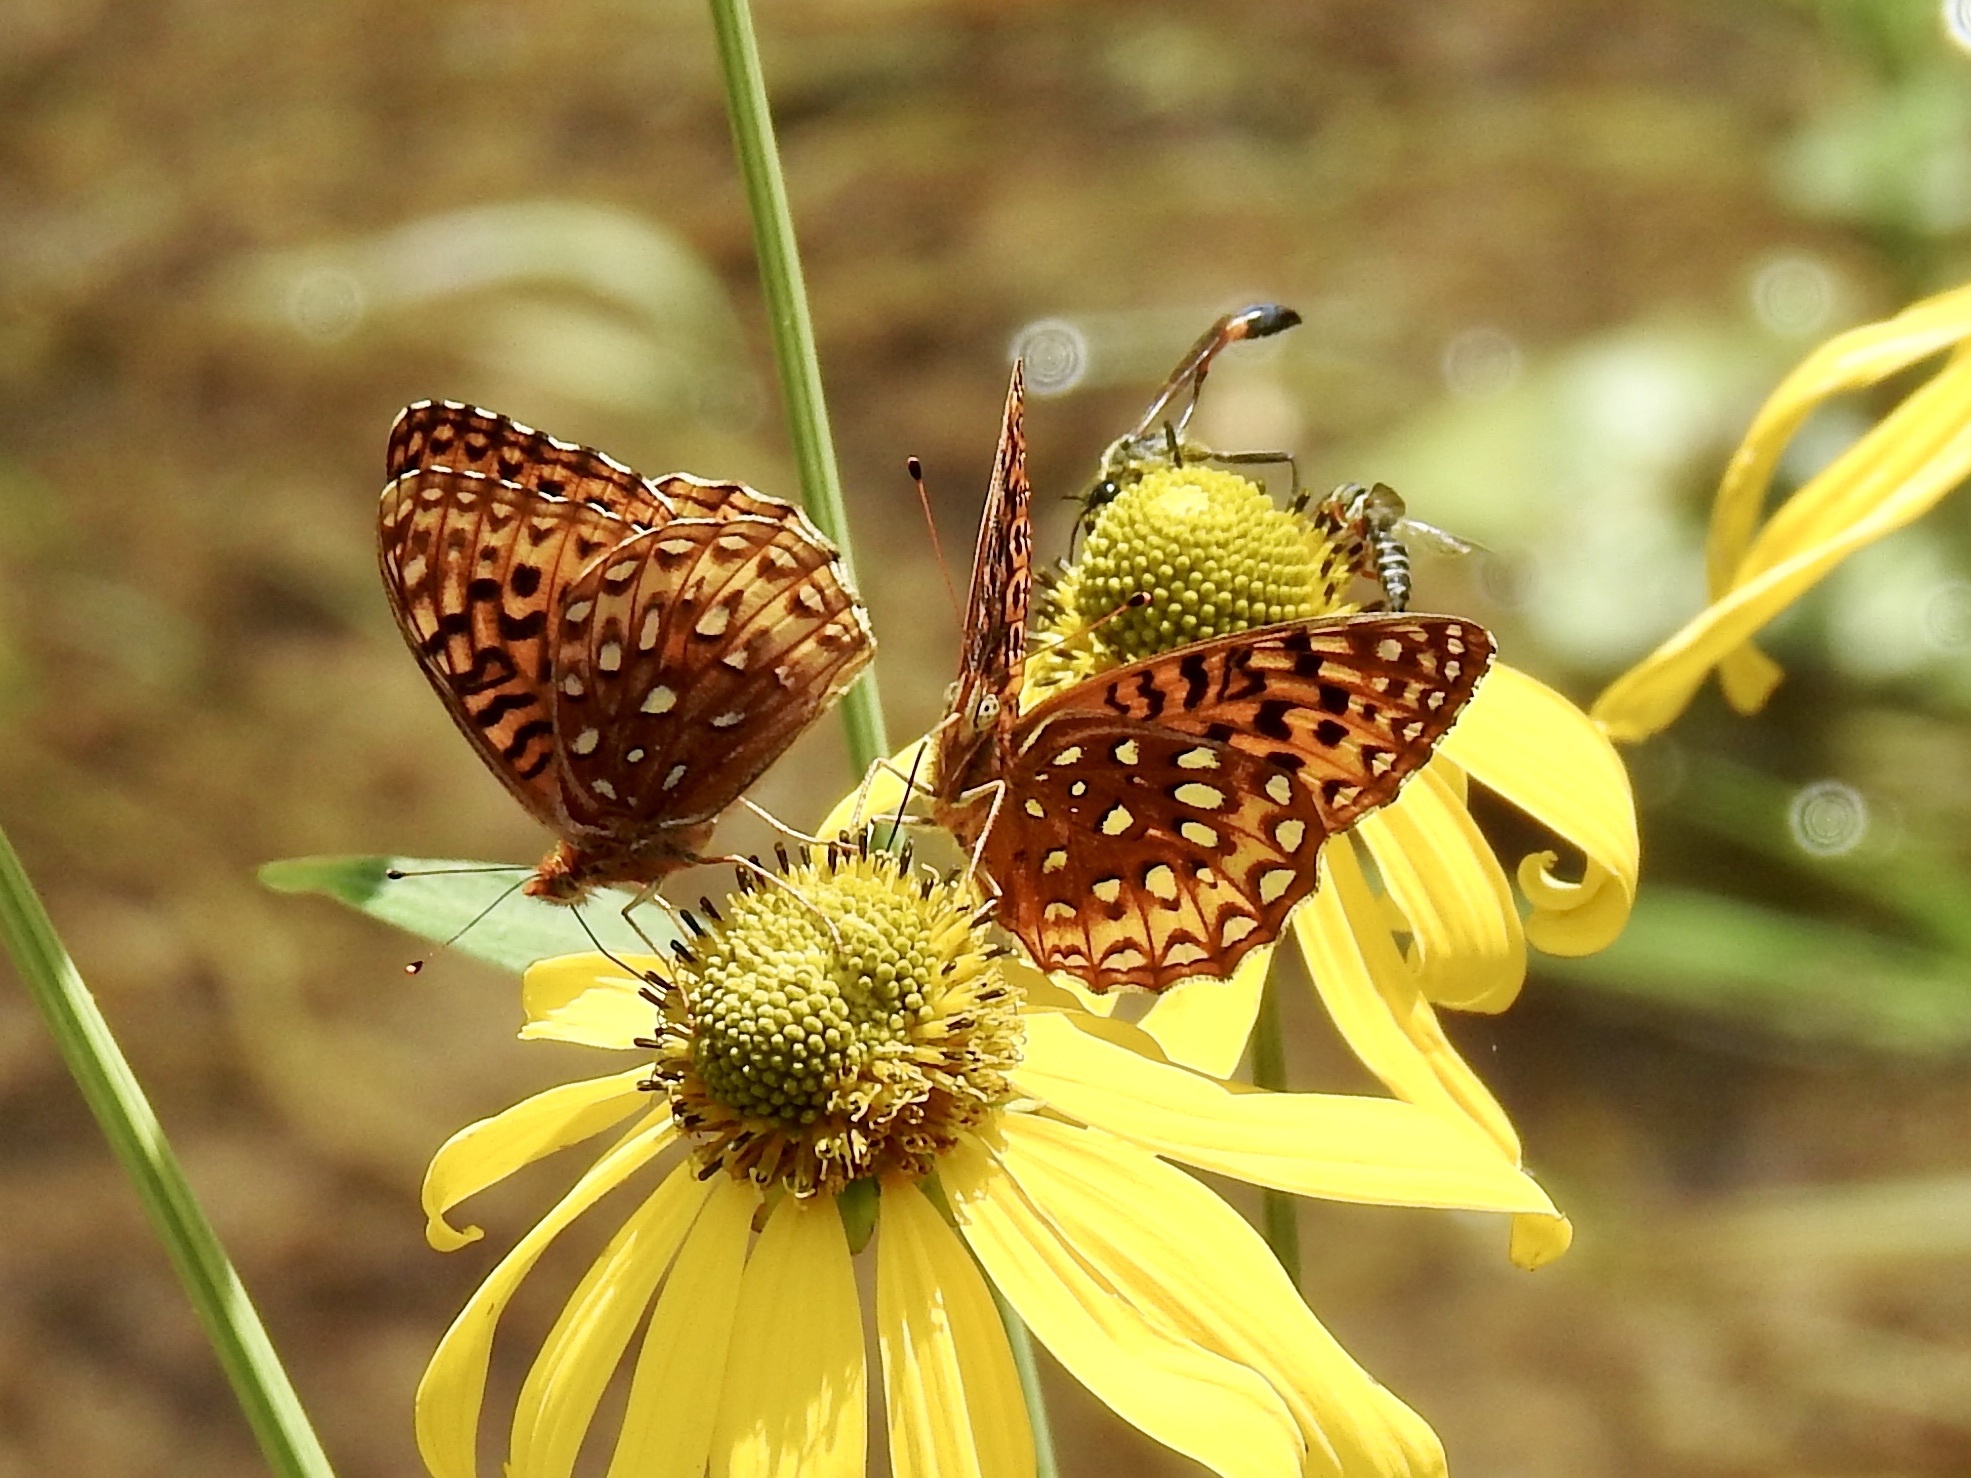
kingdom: Animalia
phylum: Arthropoda
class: Insecta
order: Lepidoptera
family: Nymphalidae
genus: Speyeria
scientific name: Speyeria atlantis
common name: Atlantis fritillary
